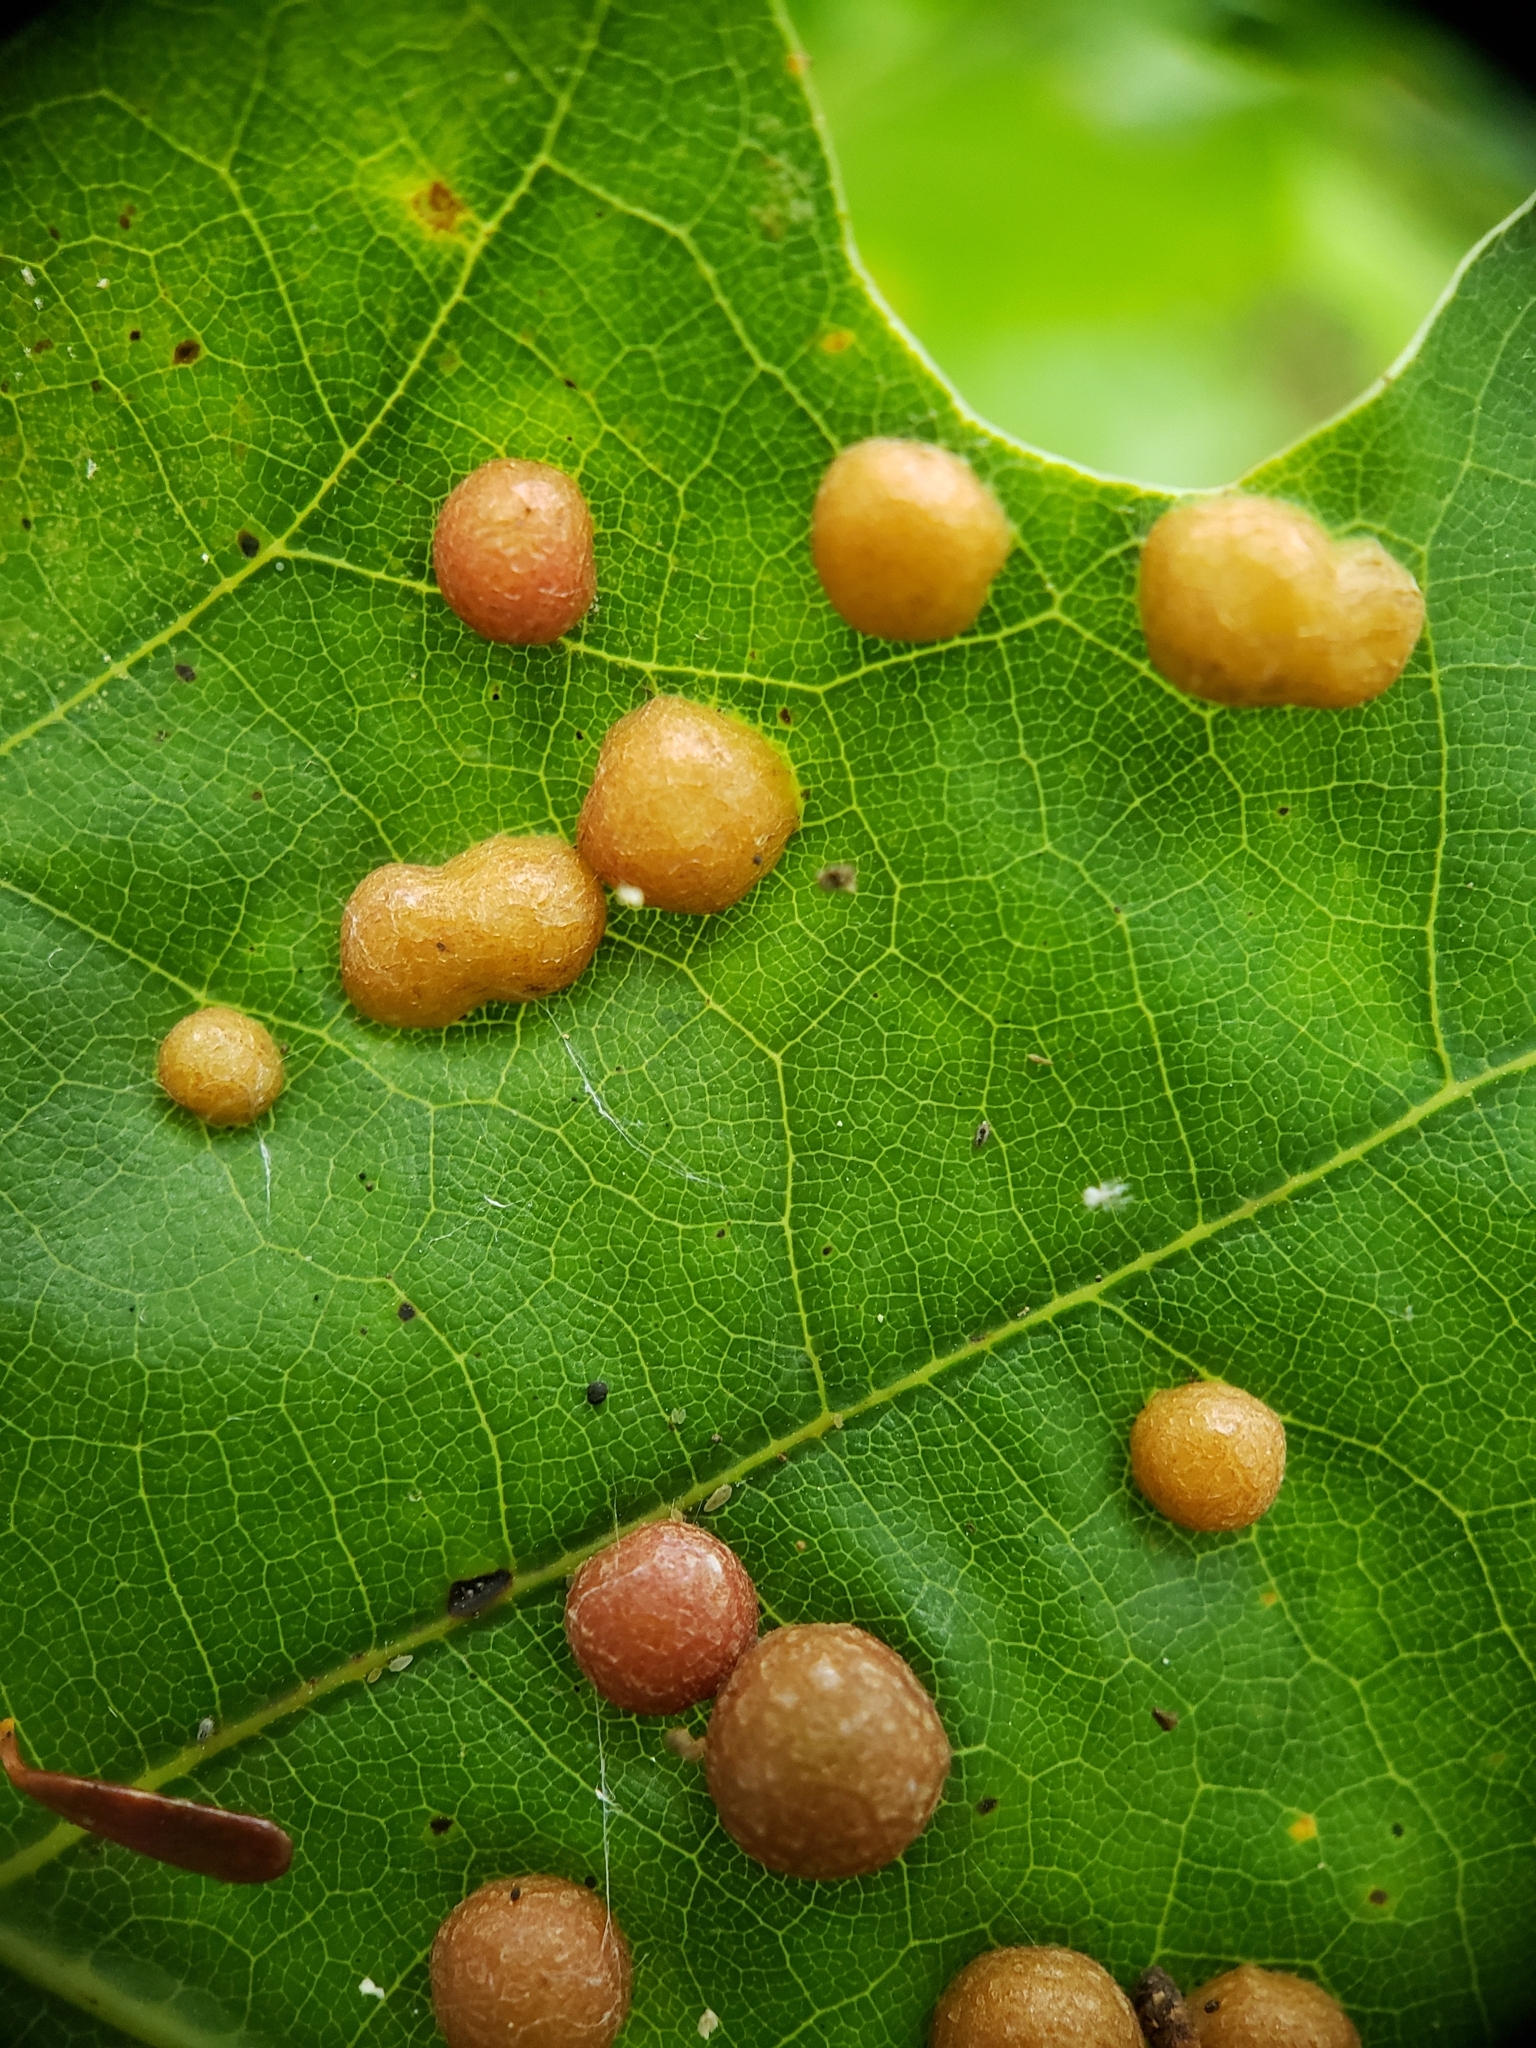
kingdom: Animalia
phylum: Arthropoda
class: Insecta
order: Diptera
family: Cecidomyiidae
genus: Polystepha
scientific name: Polystepha pilulae
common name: Oak leaf gall midge
